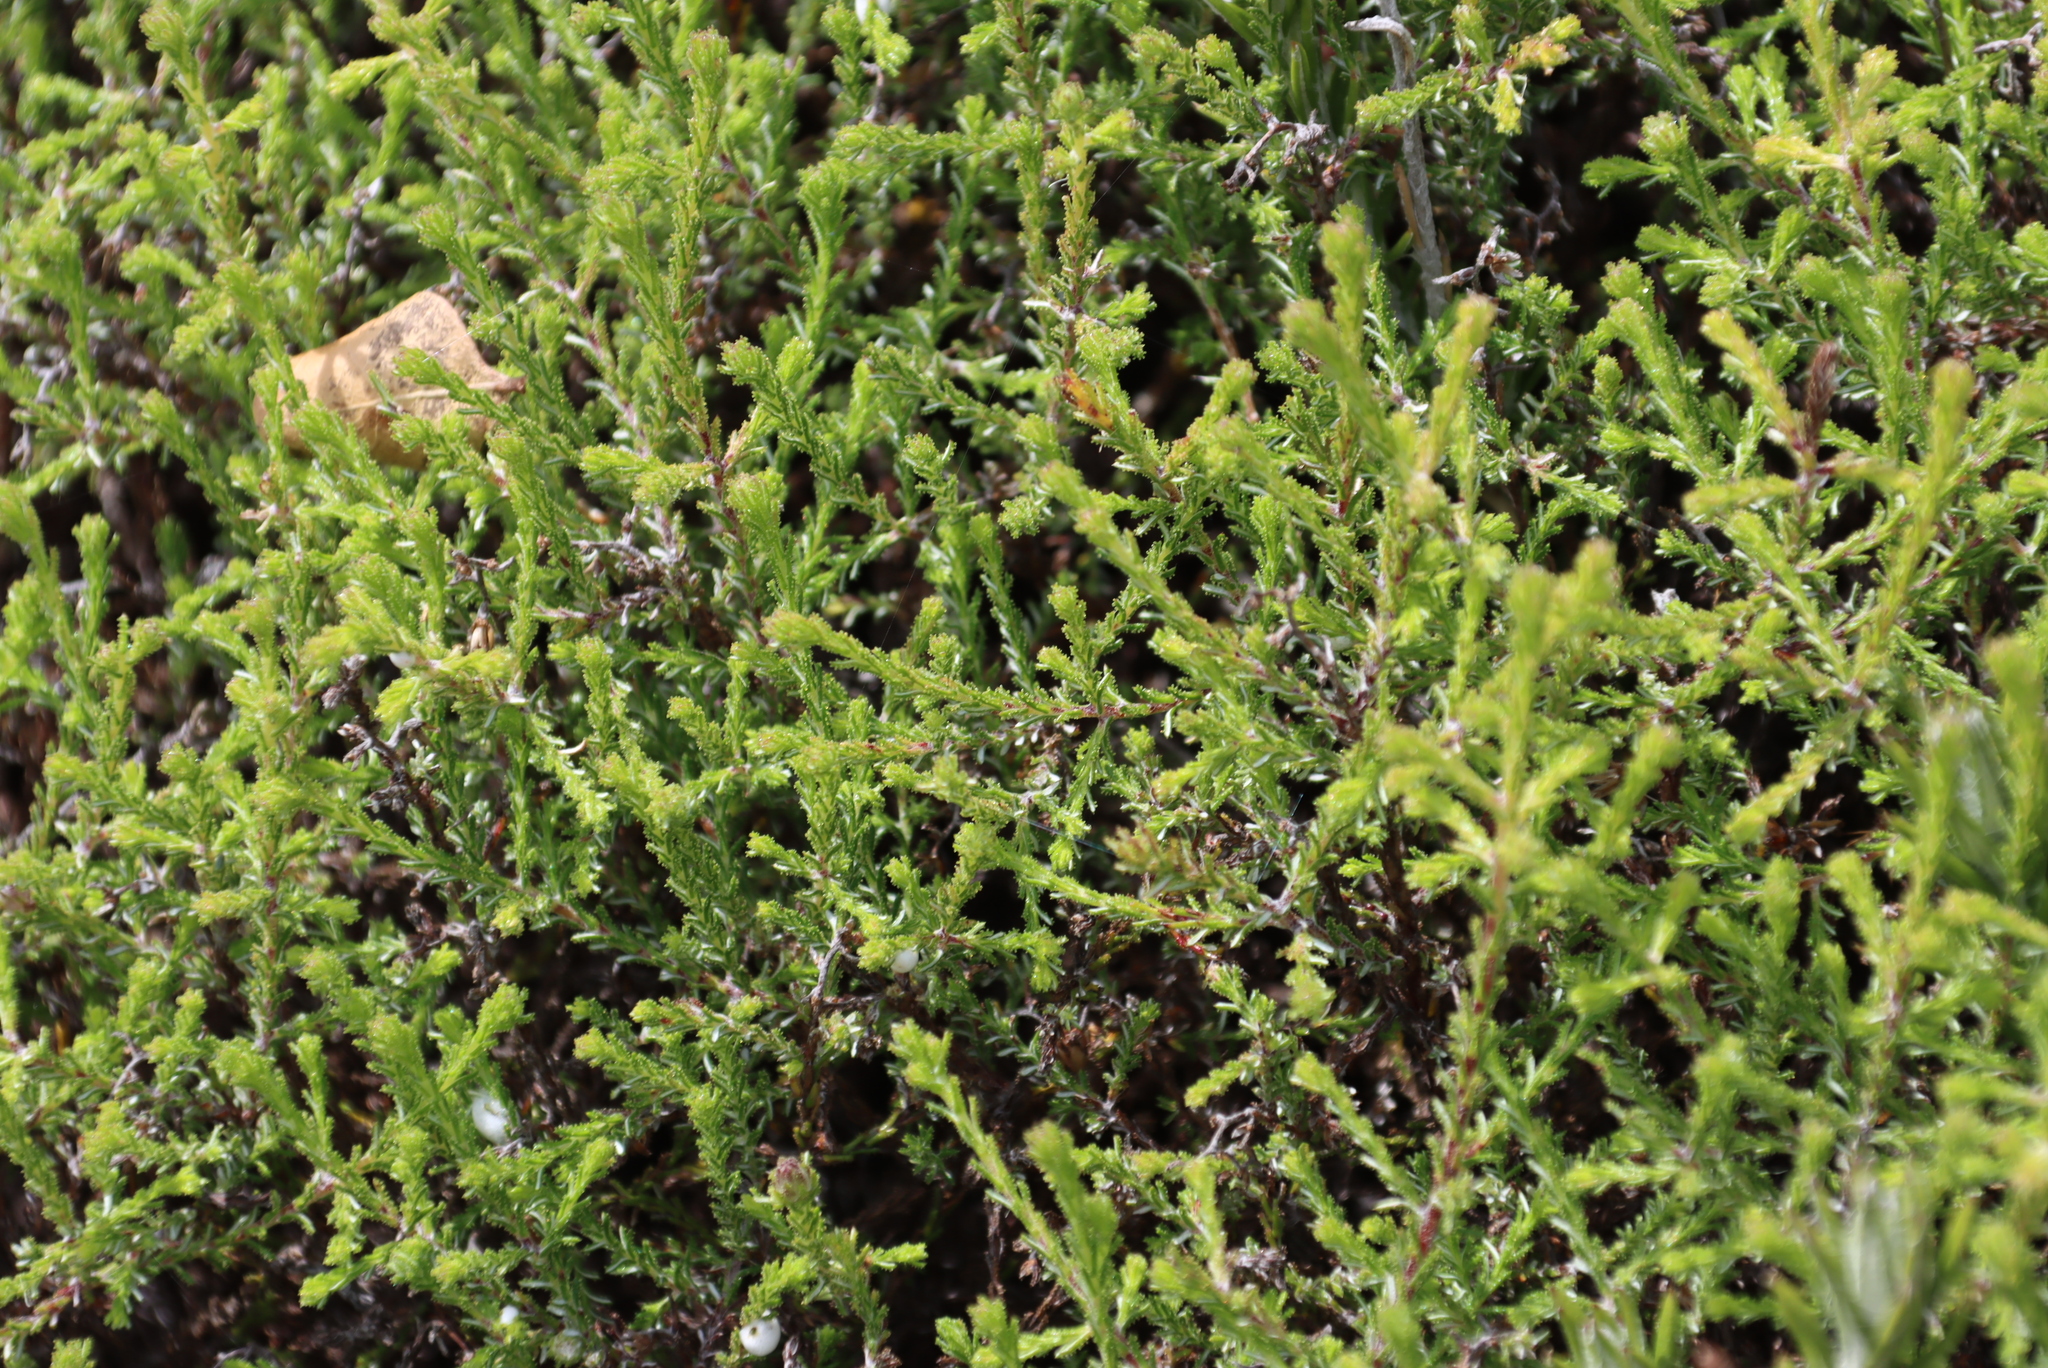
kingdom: Plantae
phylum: Tracheophyta
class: Magnoliopsida
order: Asterales
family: Asteraceae
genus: Myrovernix
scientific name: Myrovernix scaber
